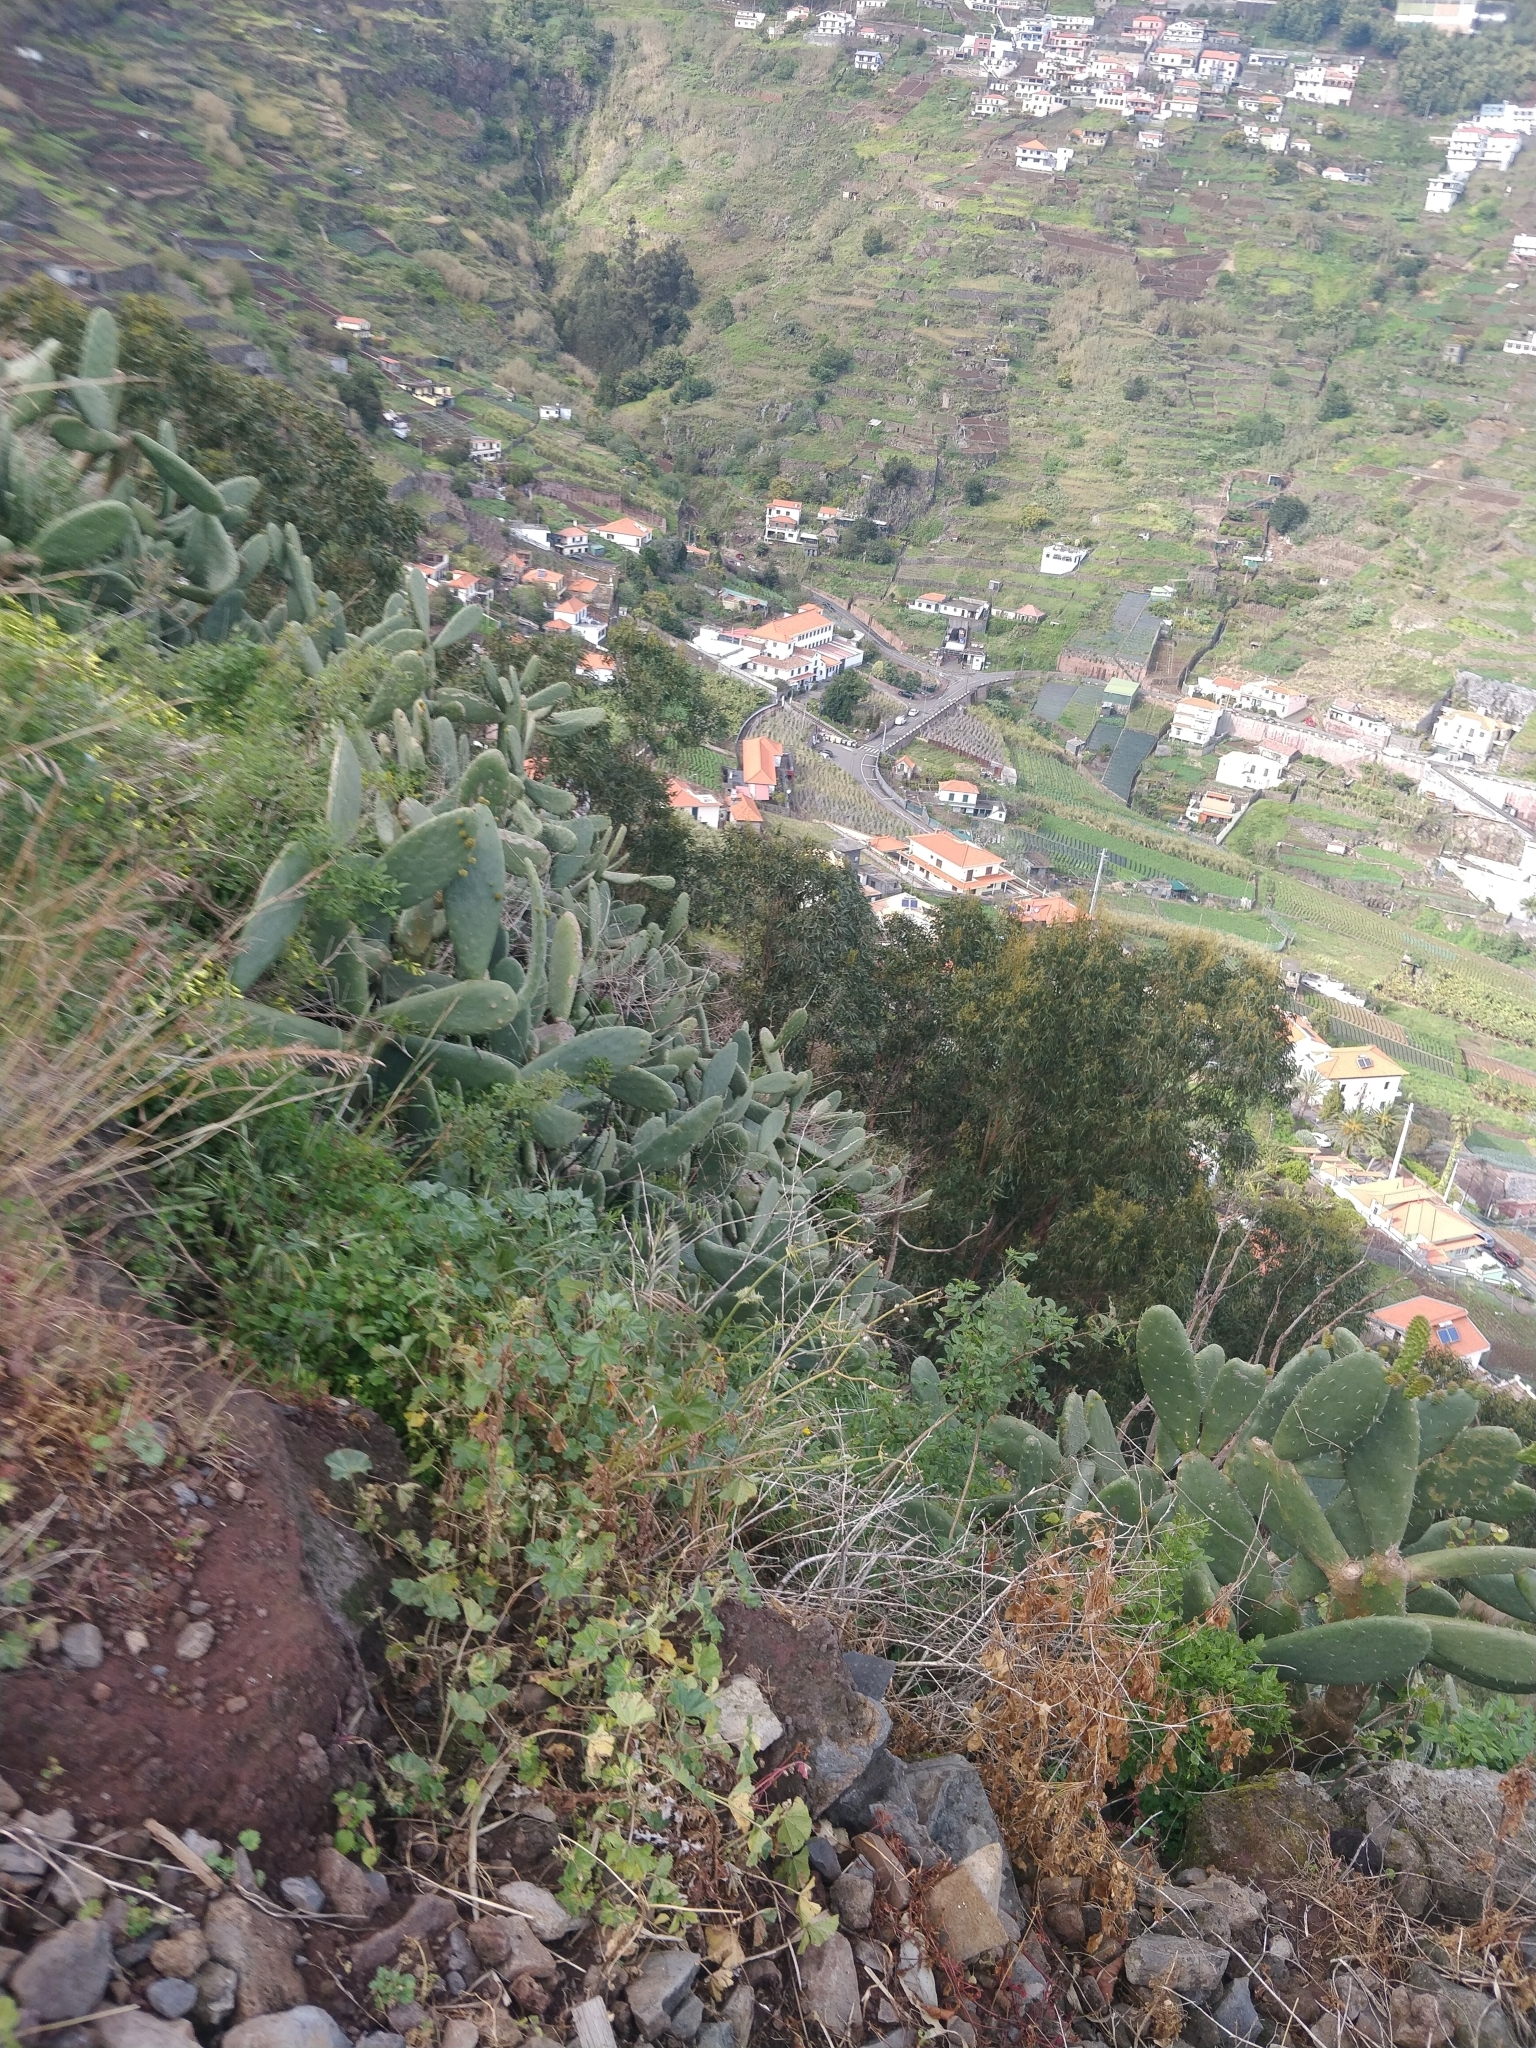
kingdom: Plantae
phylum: Tracheophyta
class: Magnoliopsida
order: Caryophyllales
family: Cactaceae
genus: Opuntia
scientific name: Opuntia ficus-indica
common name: Barbary fig
